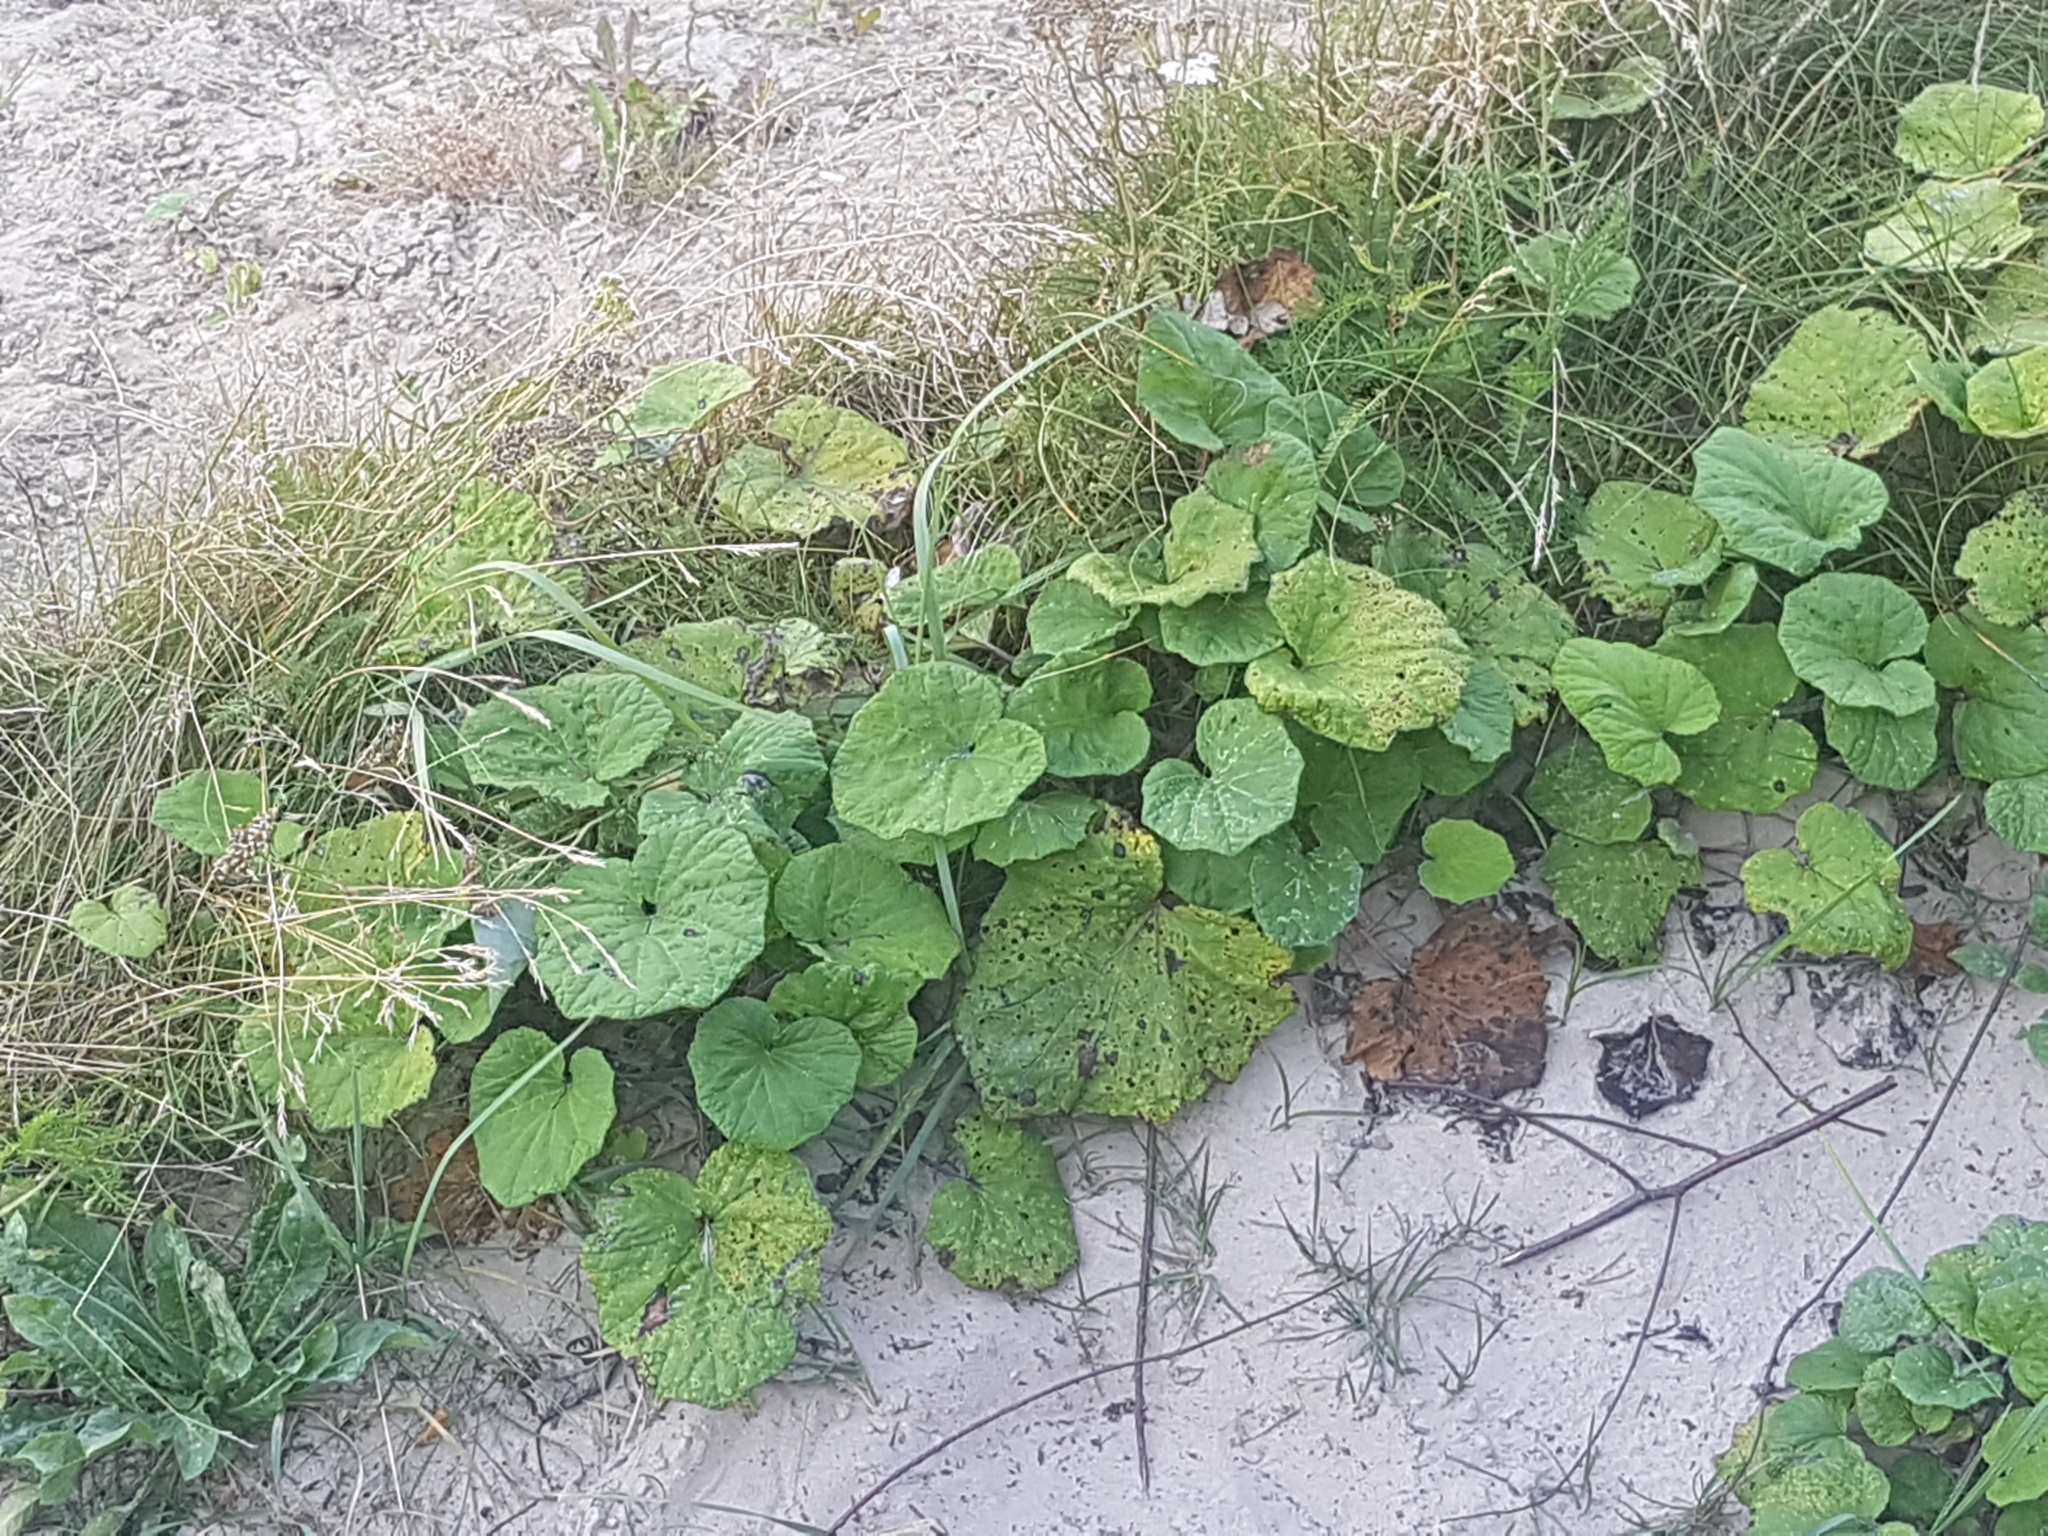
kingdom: Plantae
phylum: Tracheophyta
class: Magnoliopsida
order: Asterales
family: Asteraceae
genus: Tussilago
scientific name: Tussilago farfara
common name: Coltsfoot
